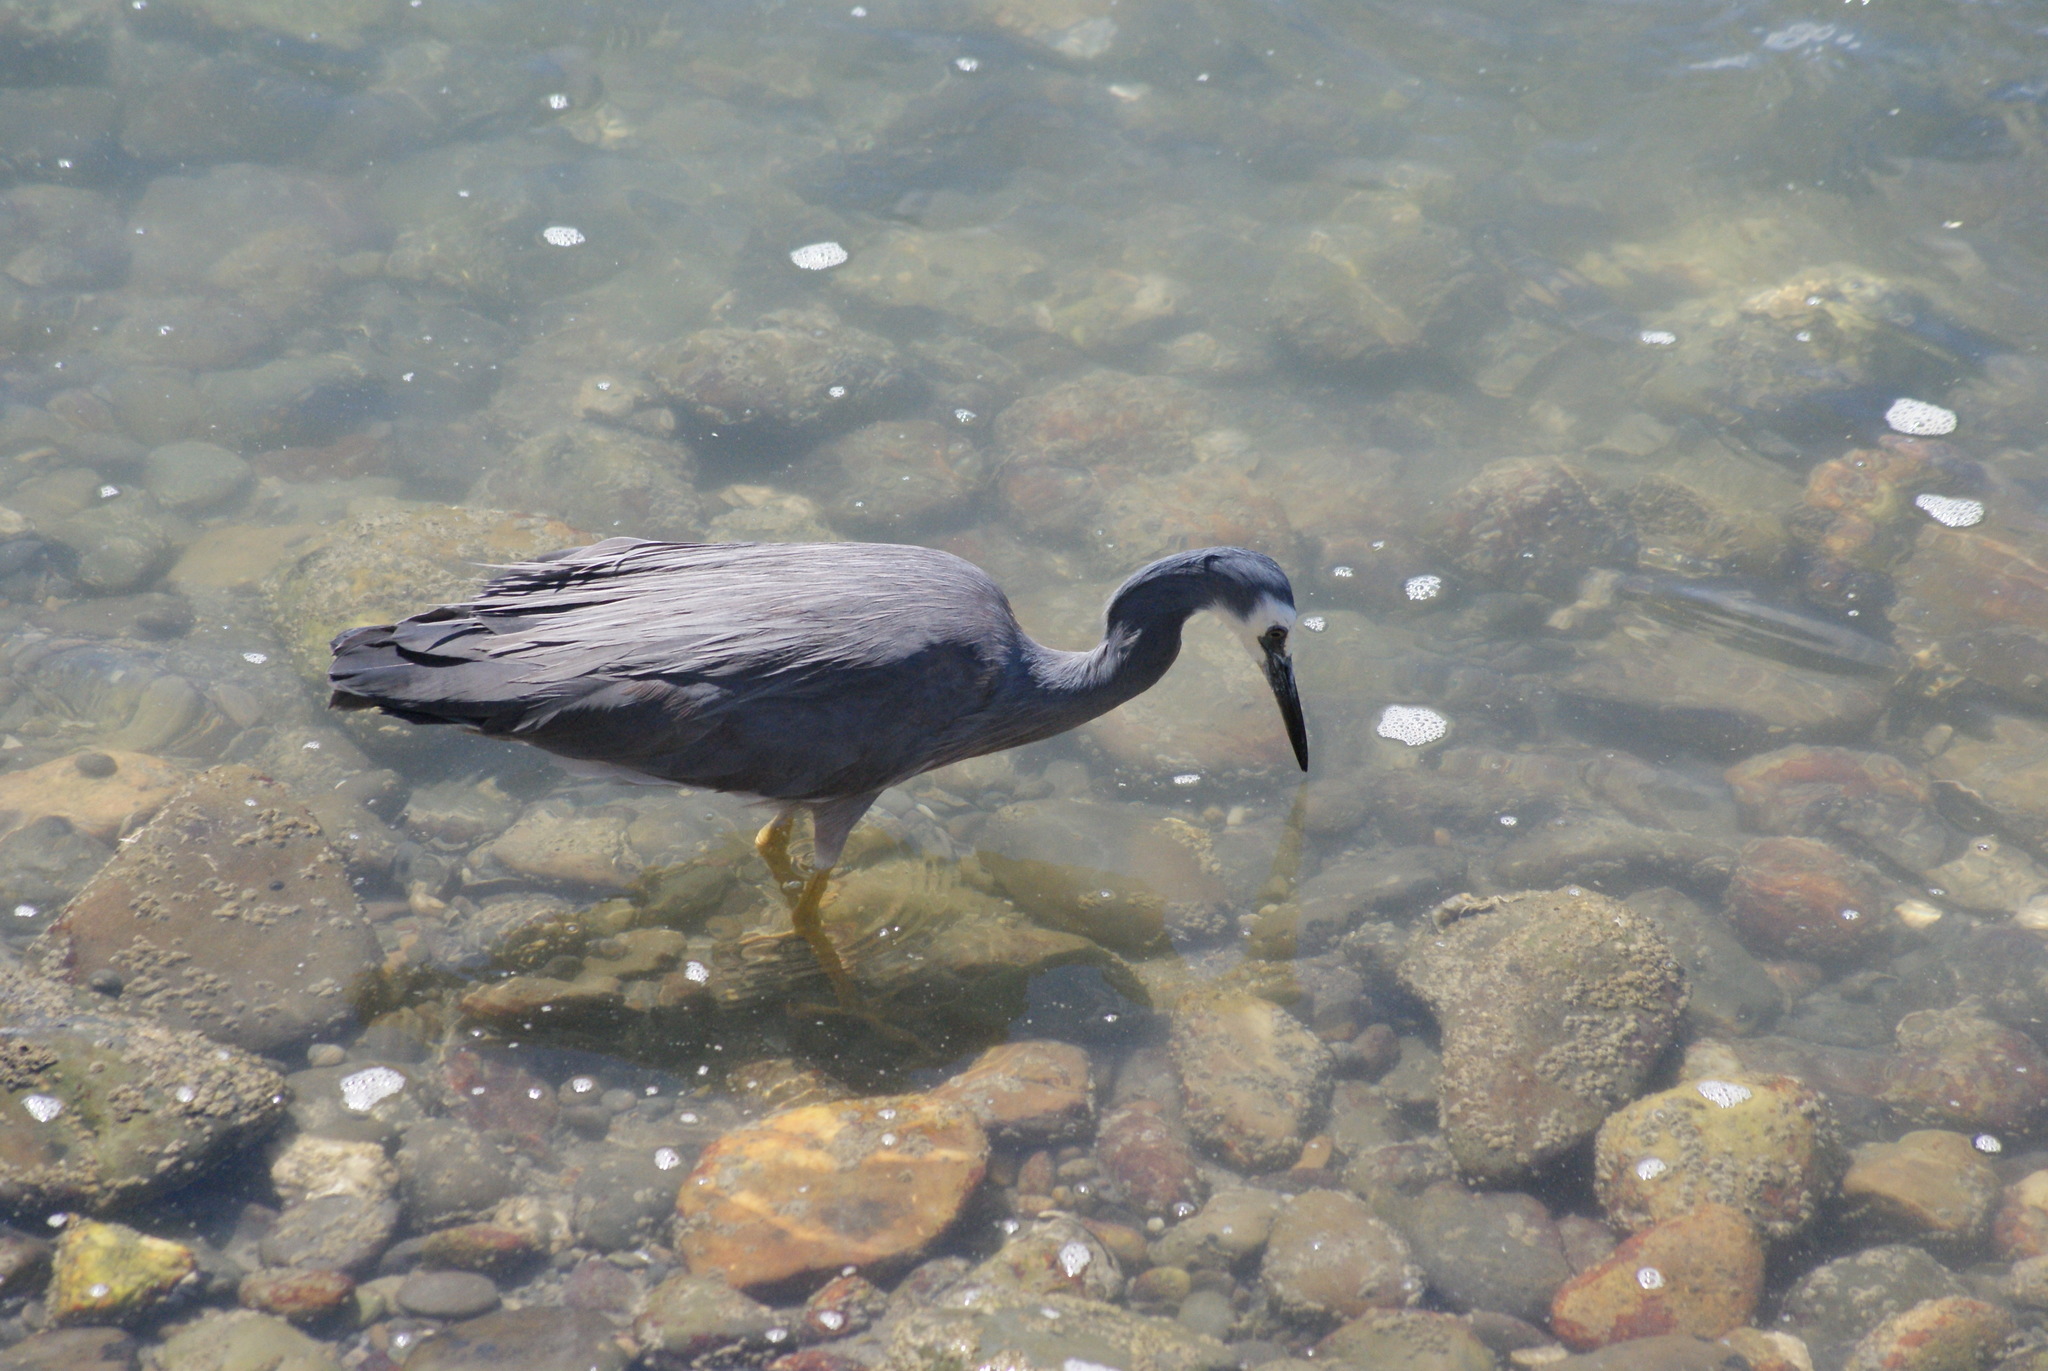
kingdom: Animalia
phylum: Chordata
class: Aves
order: Pelecaniformes
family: Ardeidae
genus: Egretta
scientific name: Egretta novaehollandiae
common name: White-faced heron
